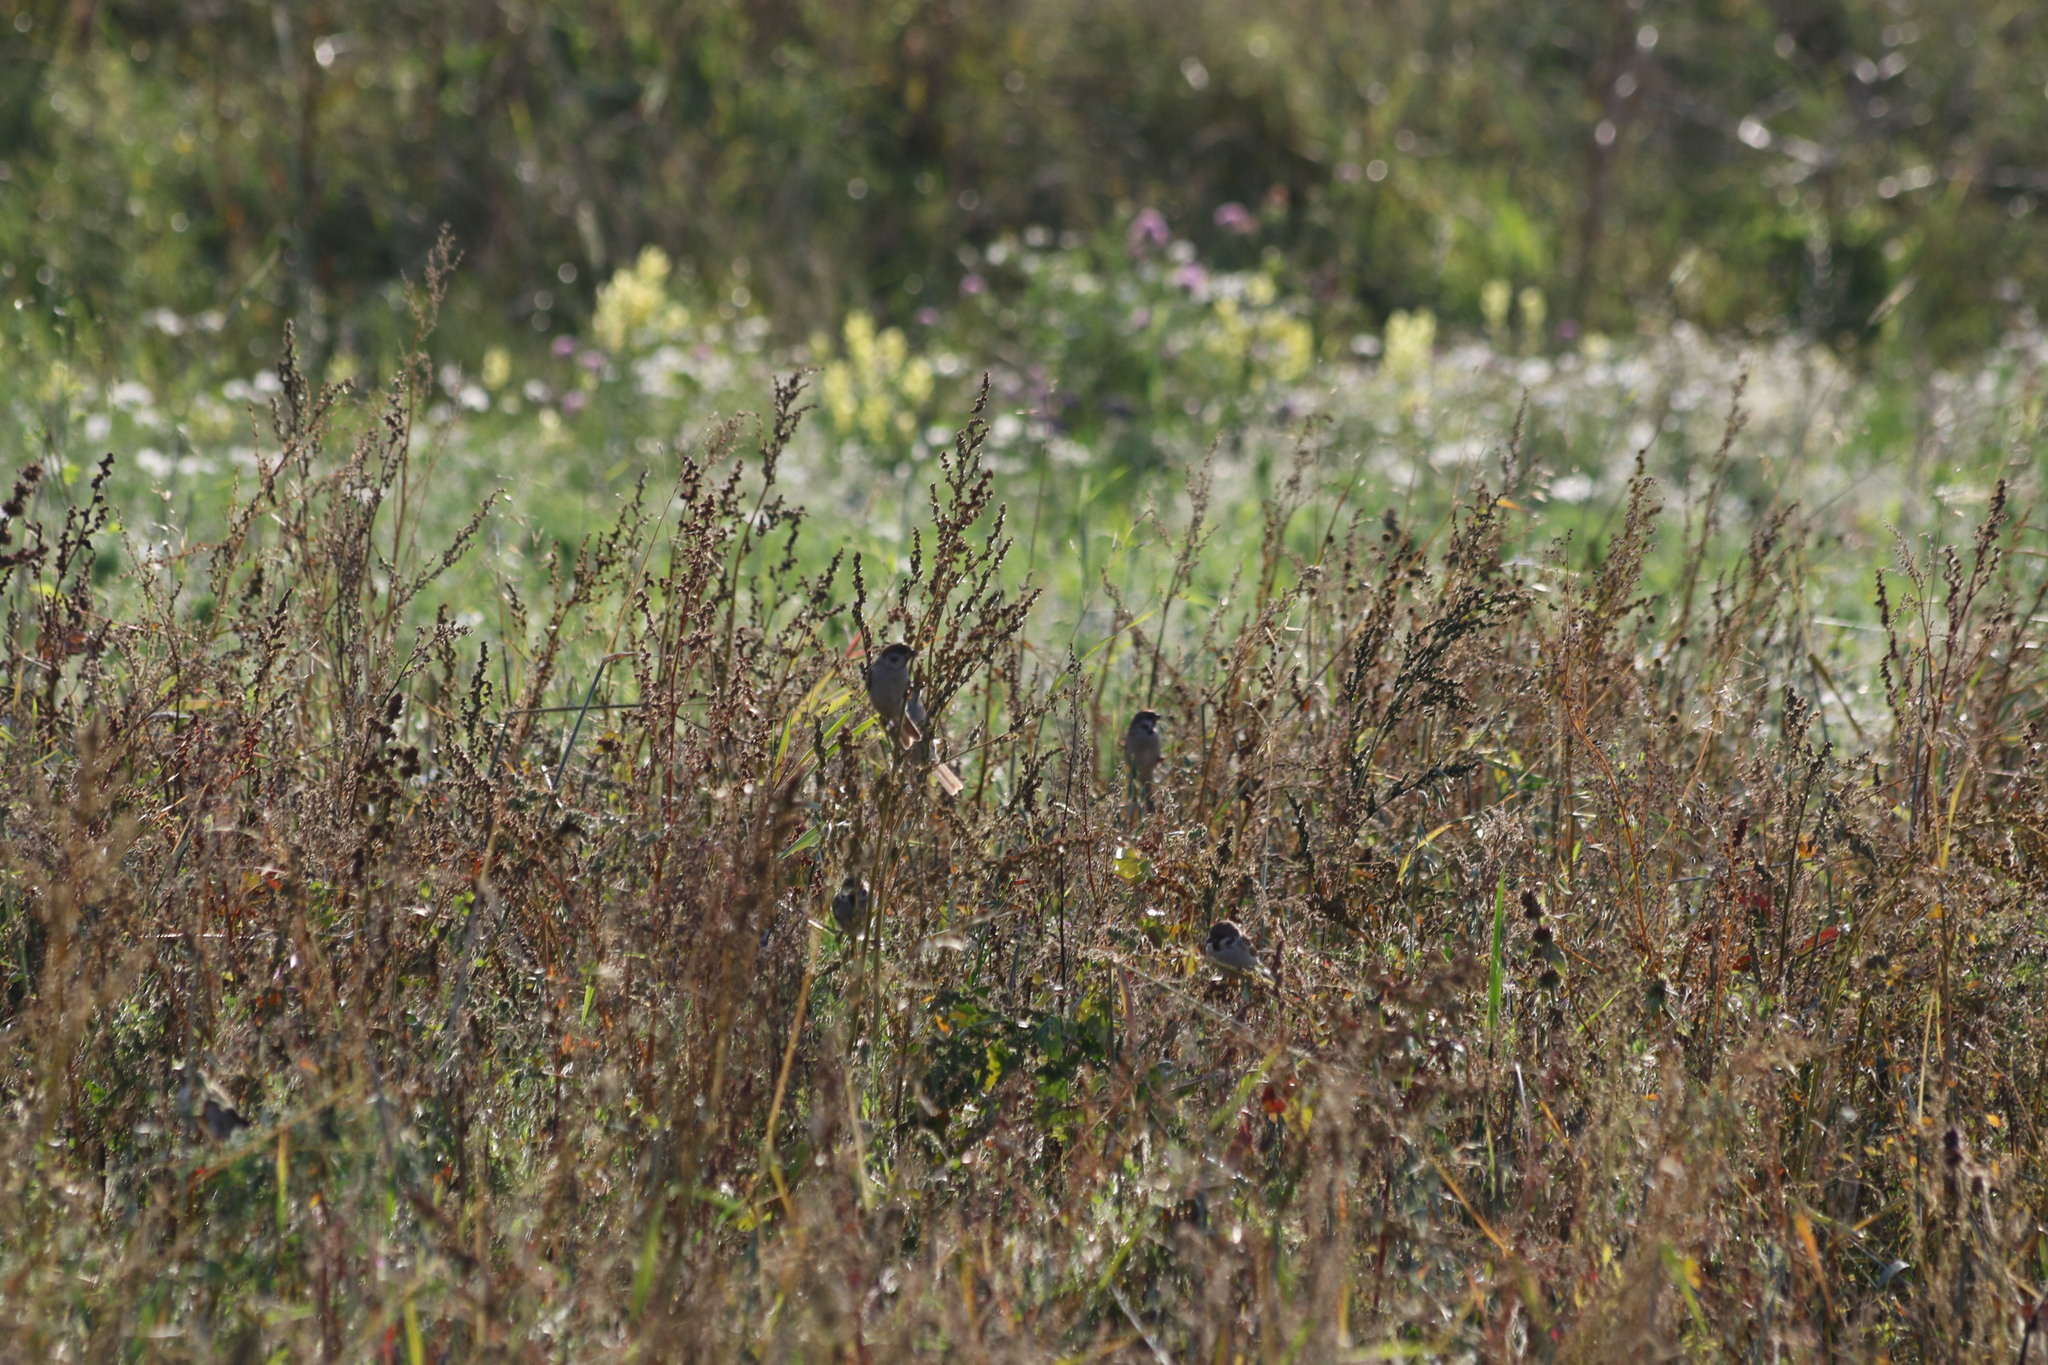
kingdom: Animalia
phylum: Chordata
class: Aves
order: Passeriformes
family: Passeridae
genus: Passer
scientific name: Passer montanus
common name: Eurasian tree sparrow
